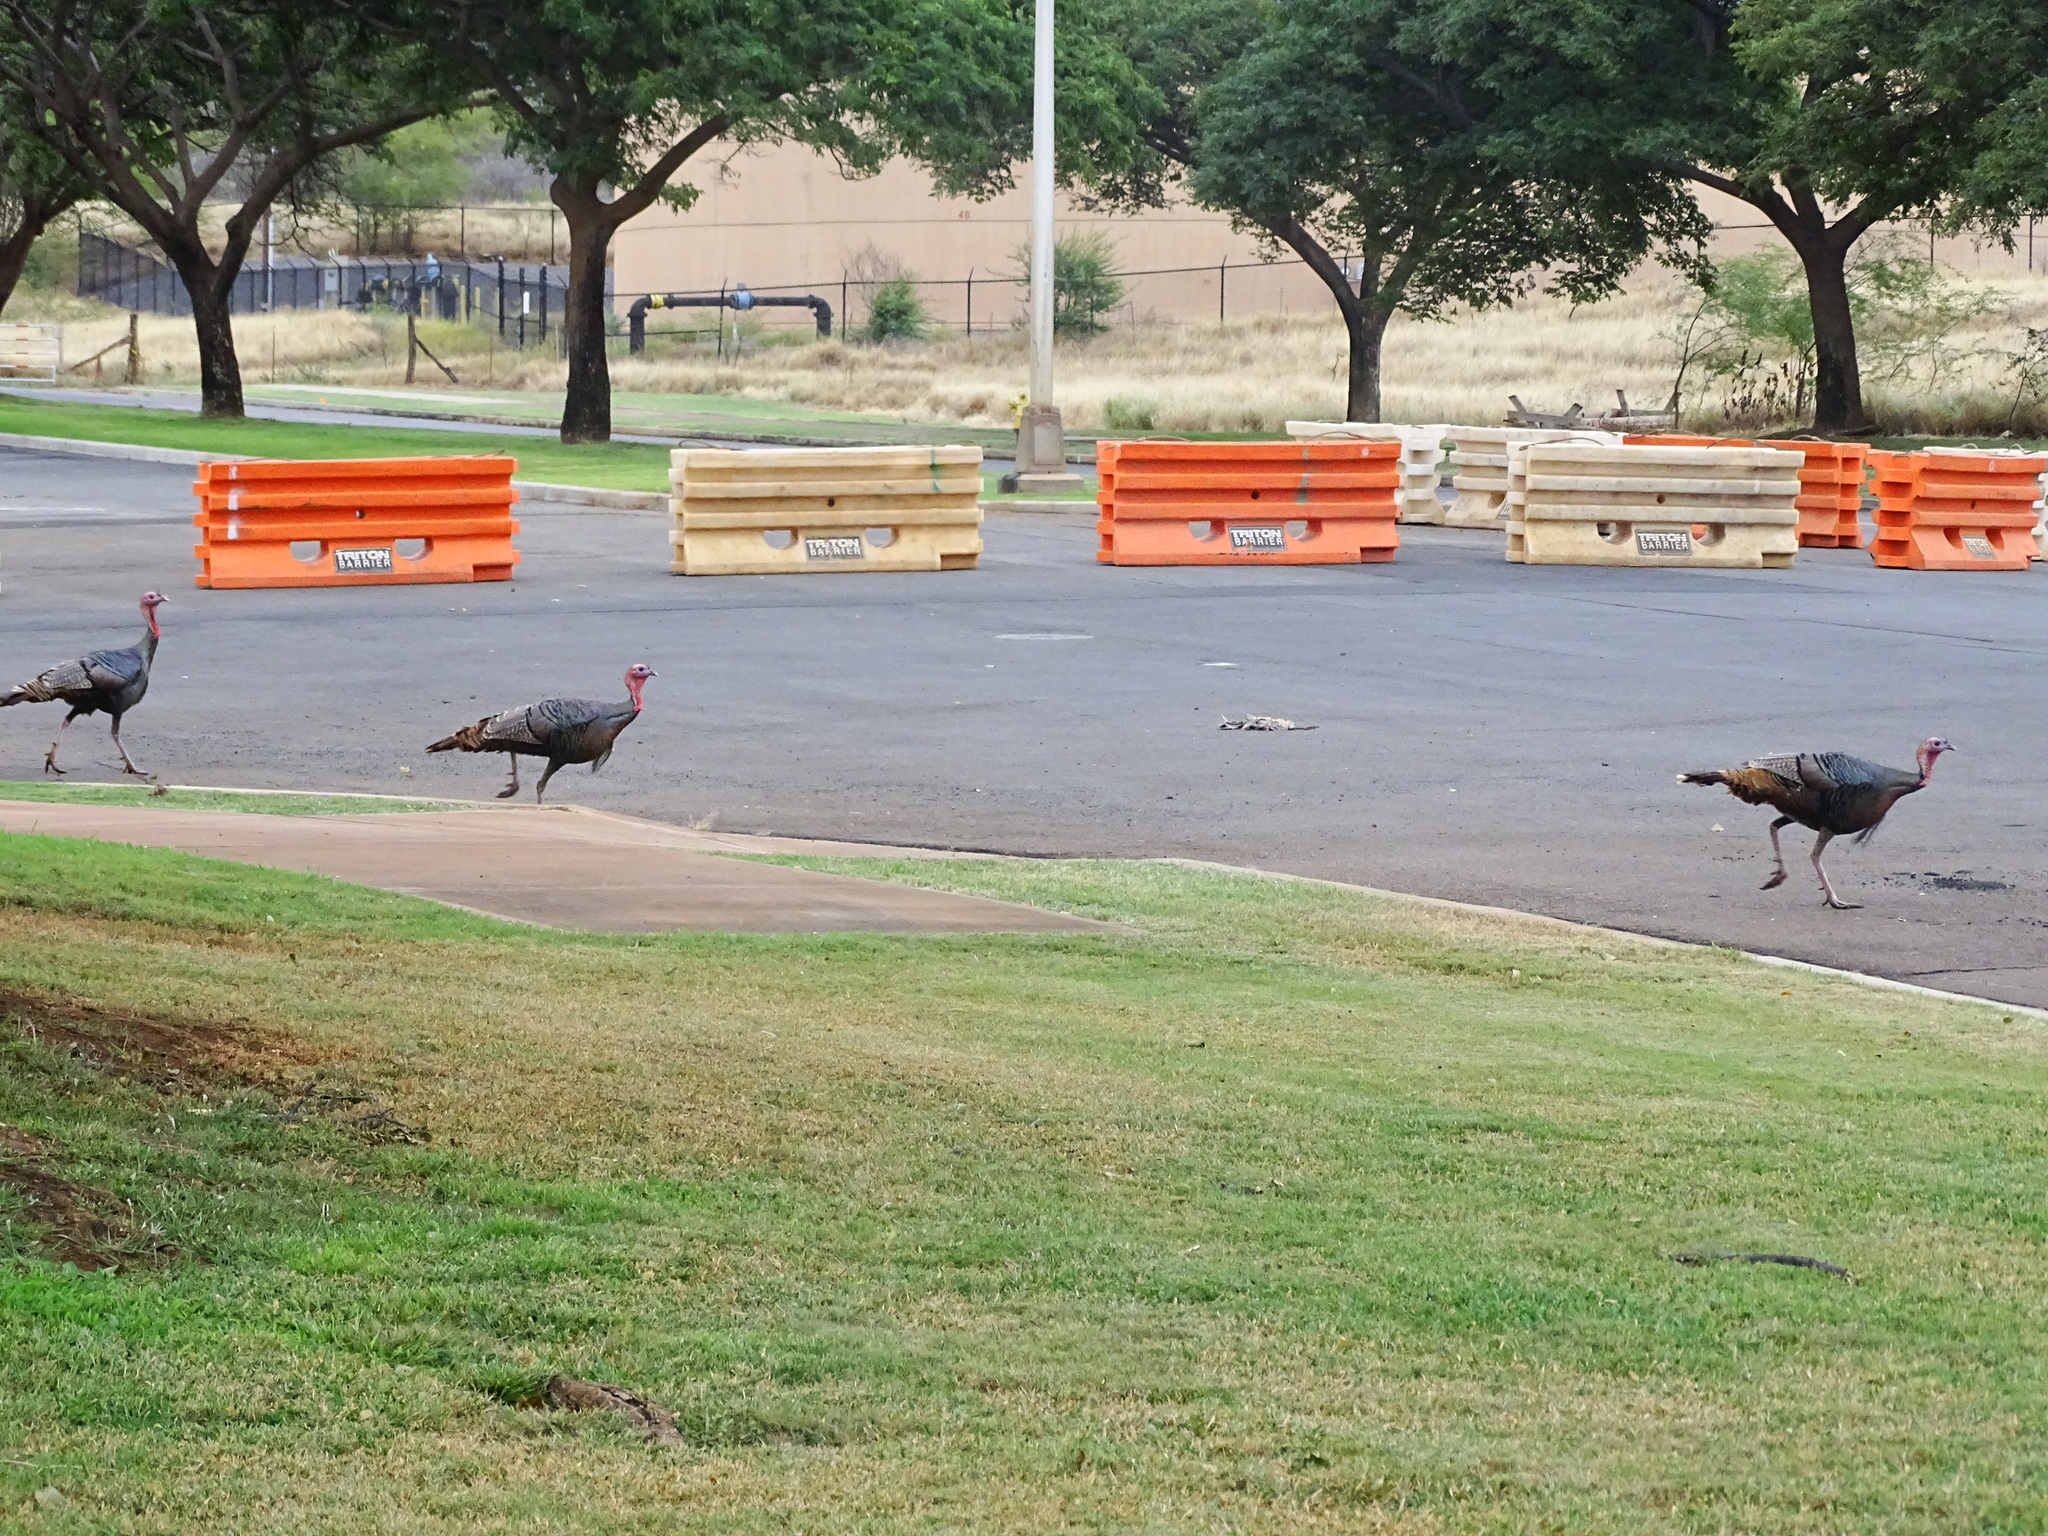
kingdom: Animalia
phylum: Chordata
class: Aves
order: Galliformes
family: Phasianidae
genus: Meleagris
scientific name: Meleagris gallopavo
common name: Wild turkey
